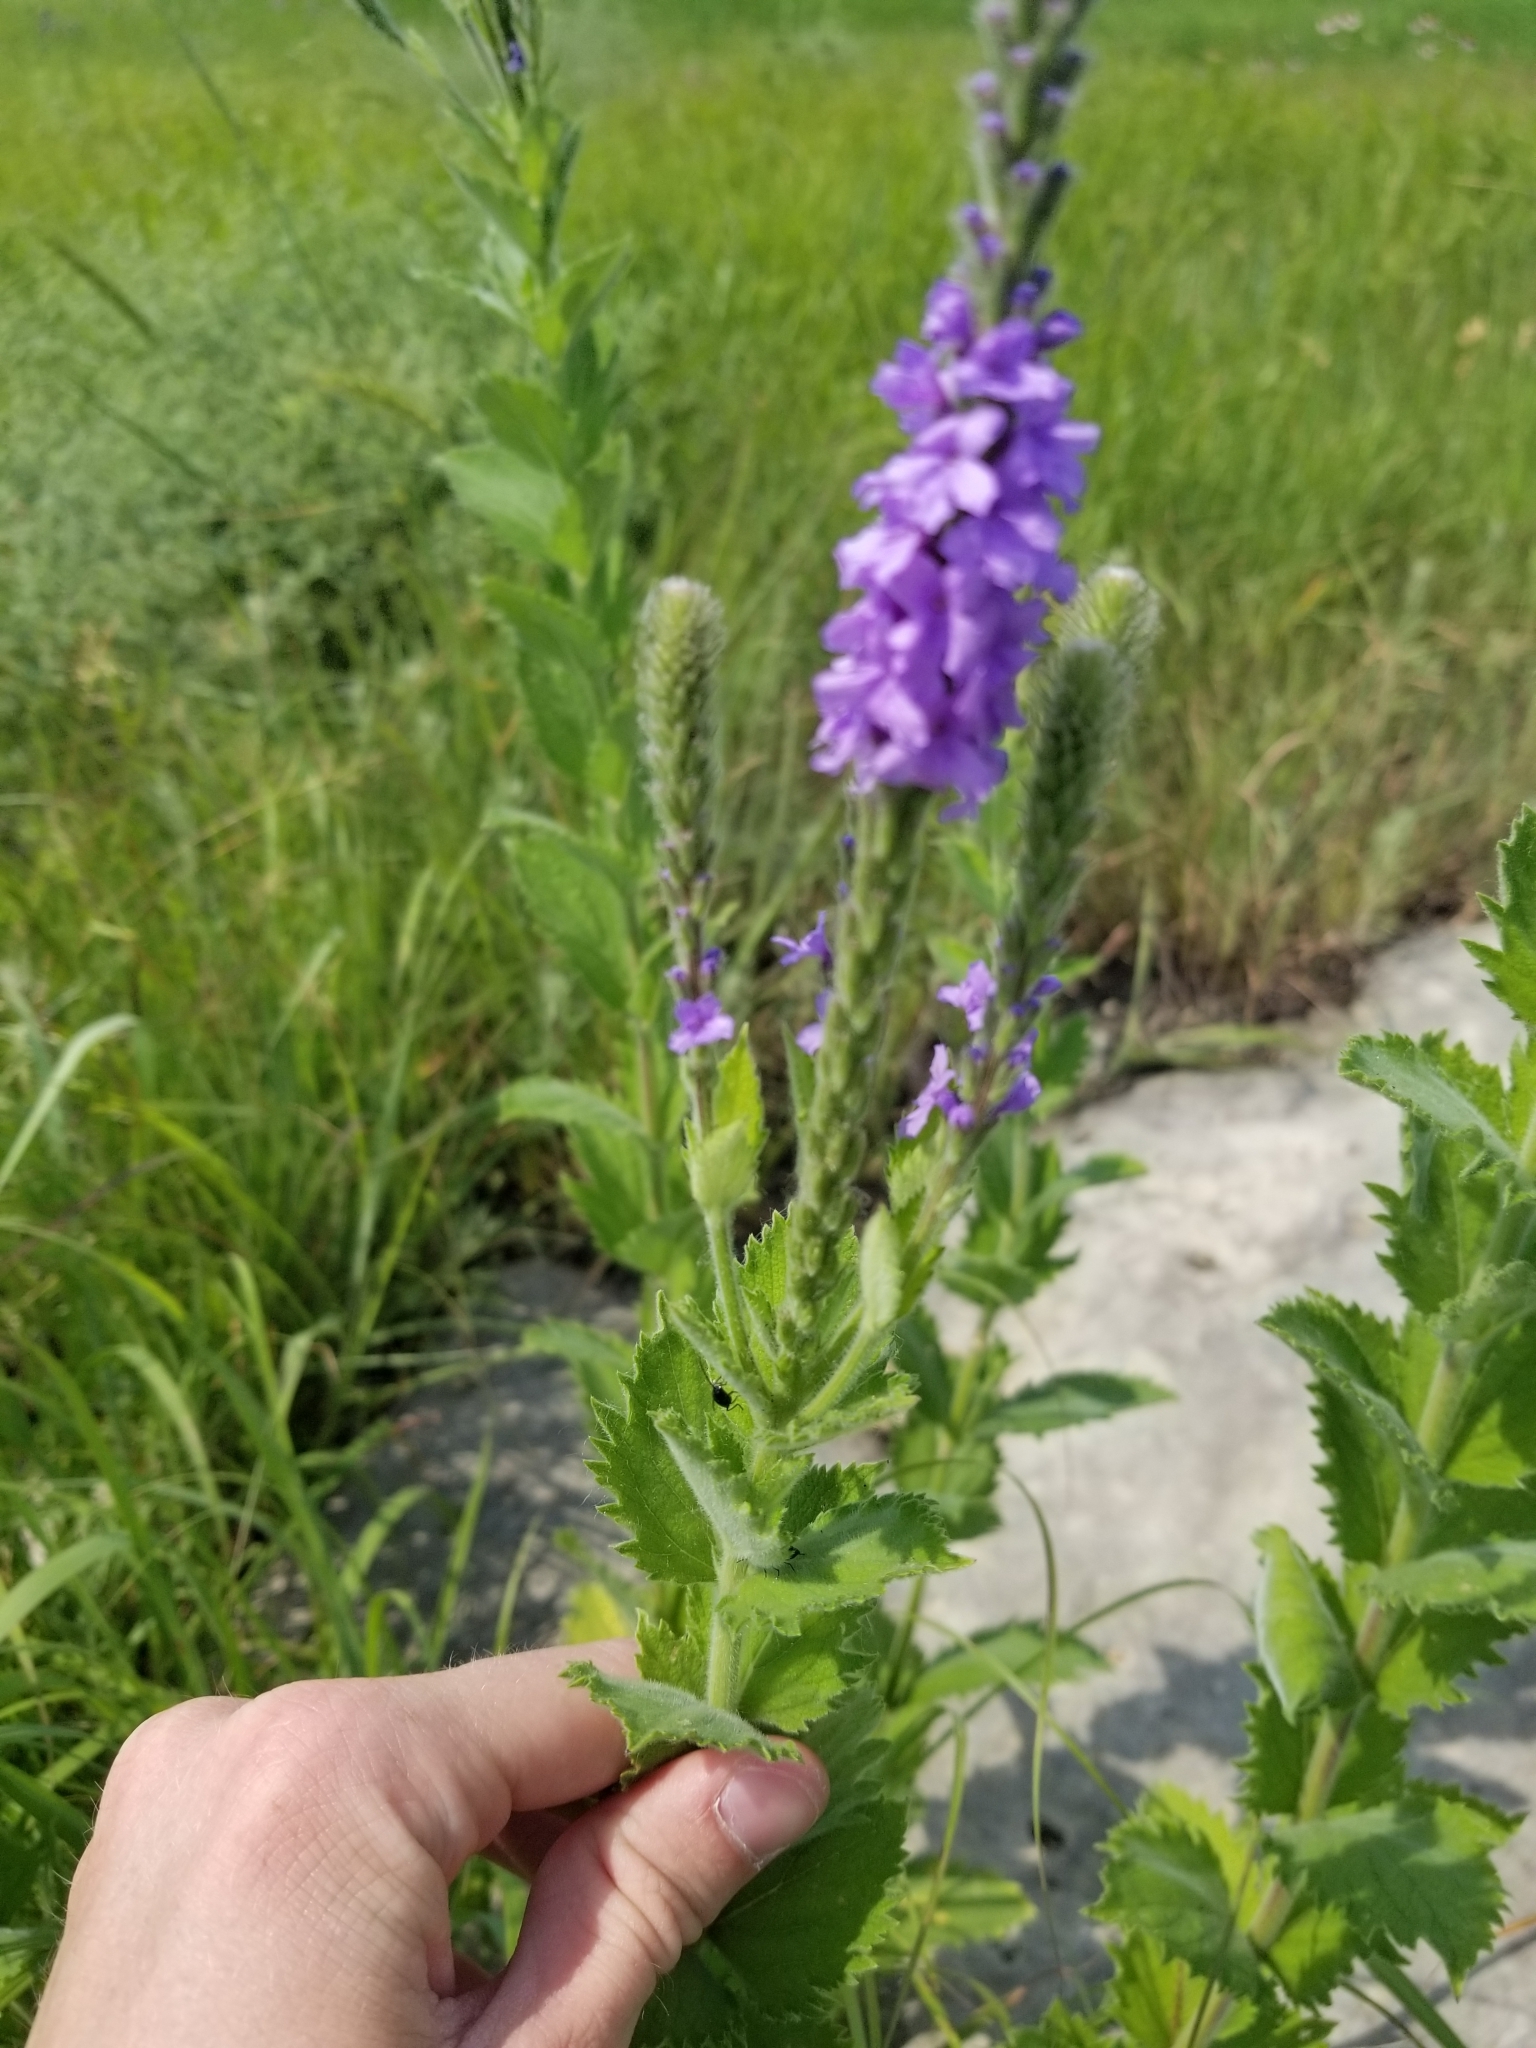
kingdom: Plantae
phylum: Tracheophyta
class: Magnoliopsida
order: Lamiales
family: Verbenaceae
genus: Verbena
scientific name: Verbena stricta
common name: Hoary vervain
